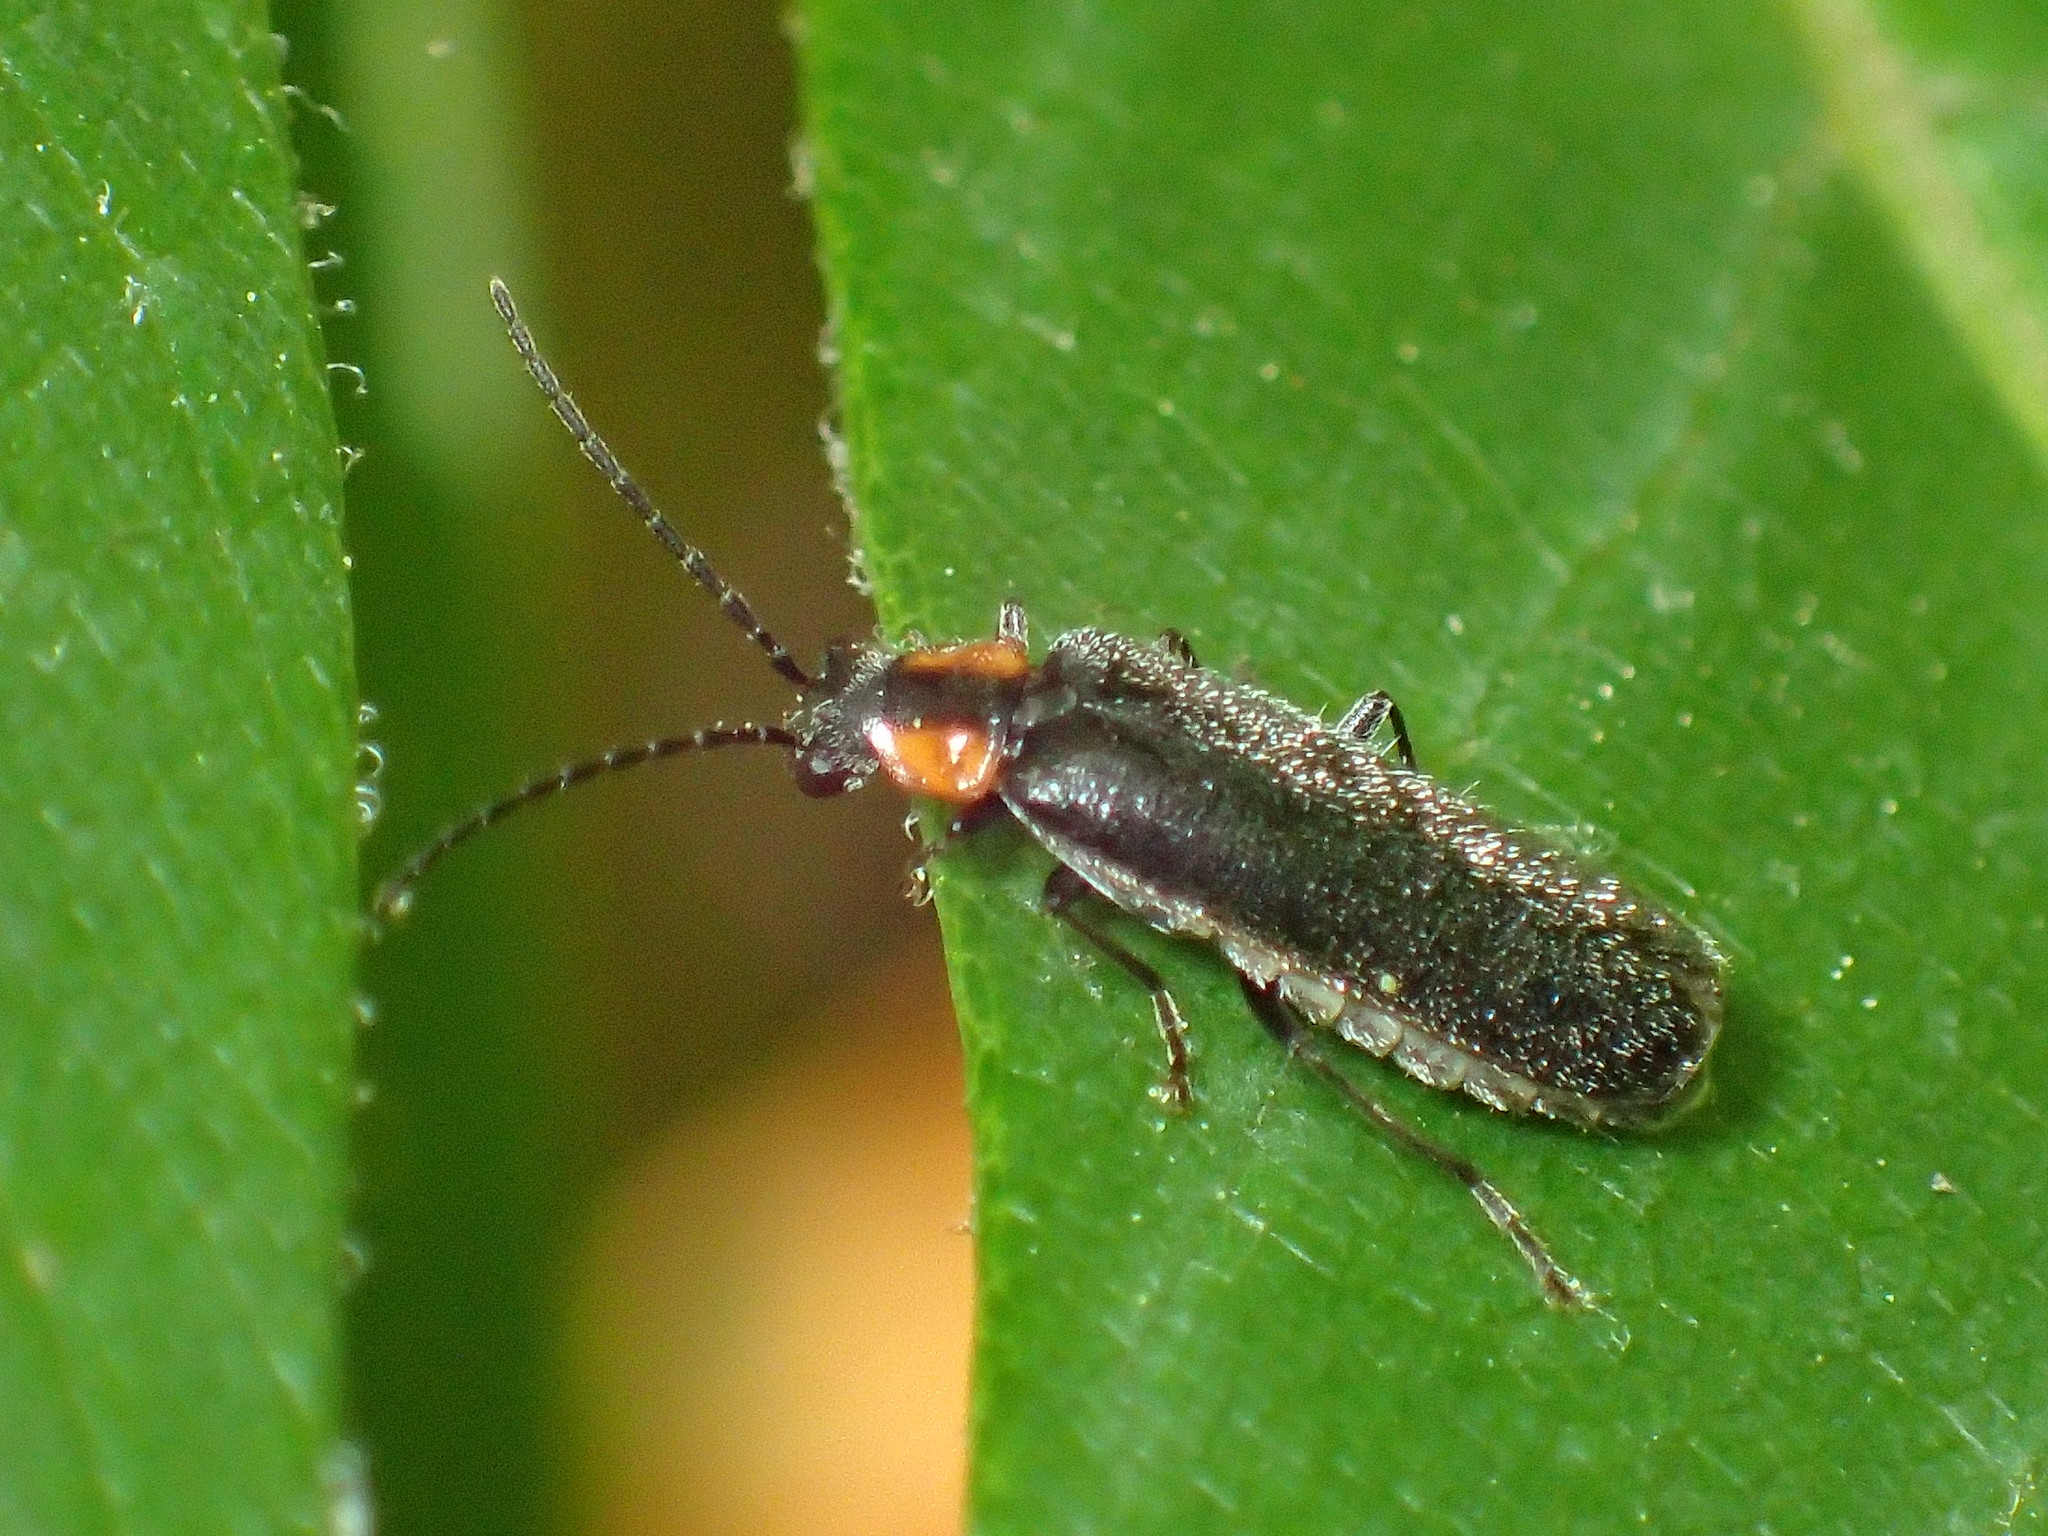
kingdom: Animalia
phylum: Arthropoda
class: Insecta
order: Coleoptera
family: Cantharidae
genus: Rhagonycha
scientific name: Rhagonycha lineola
